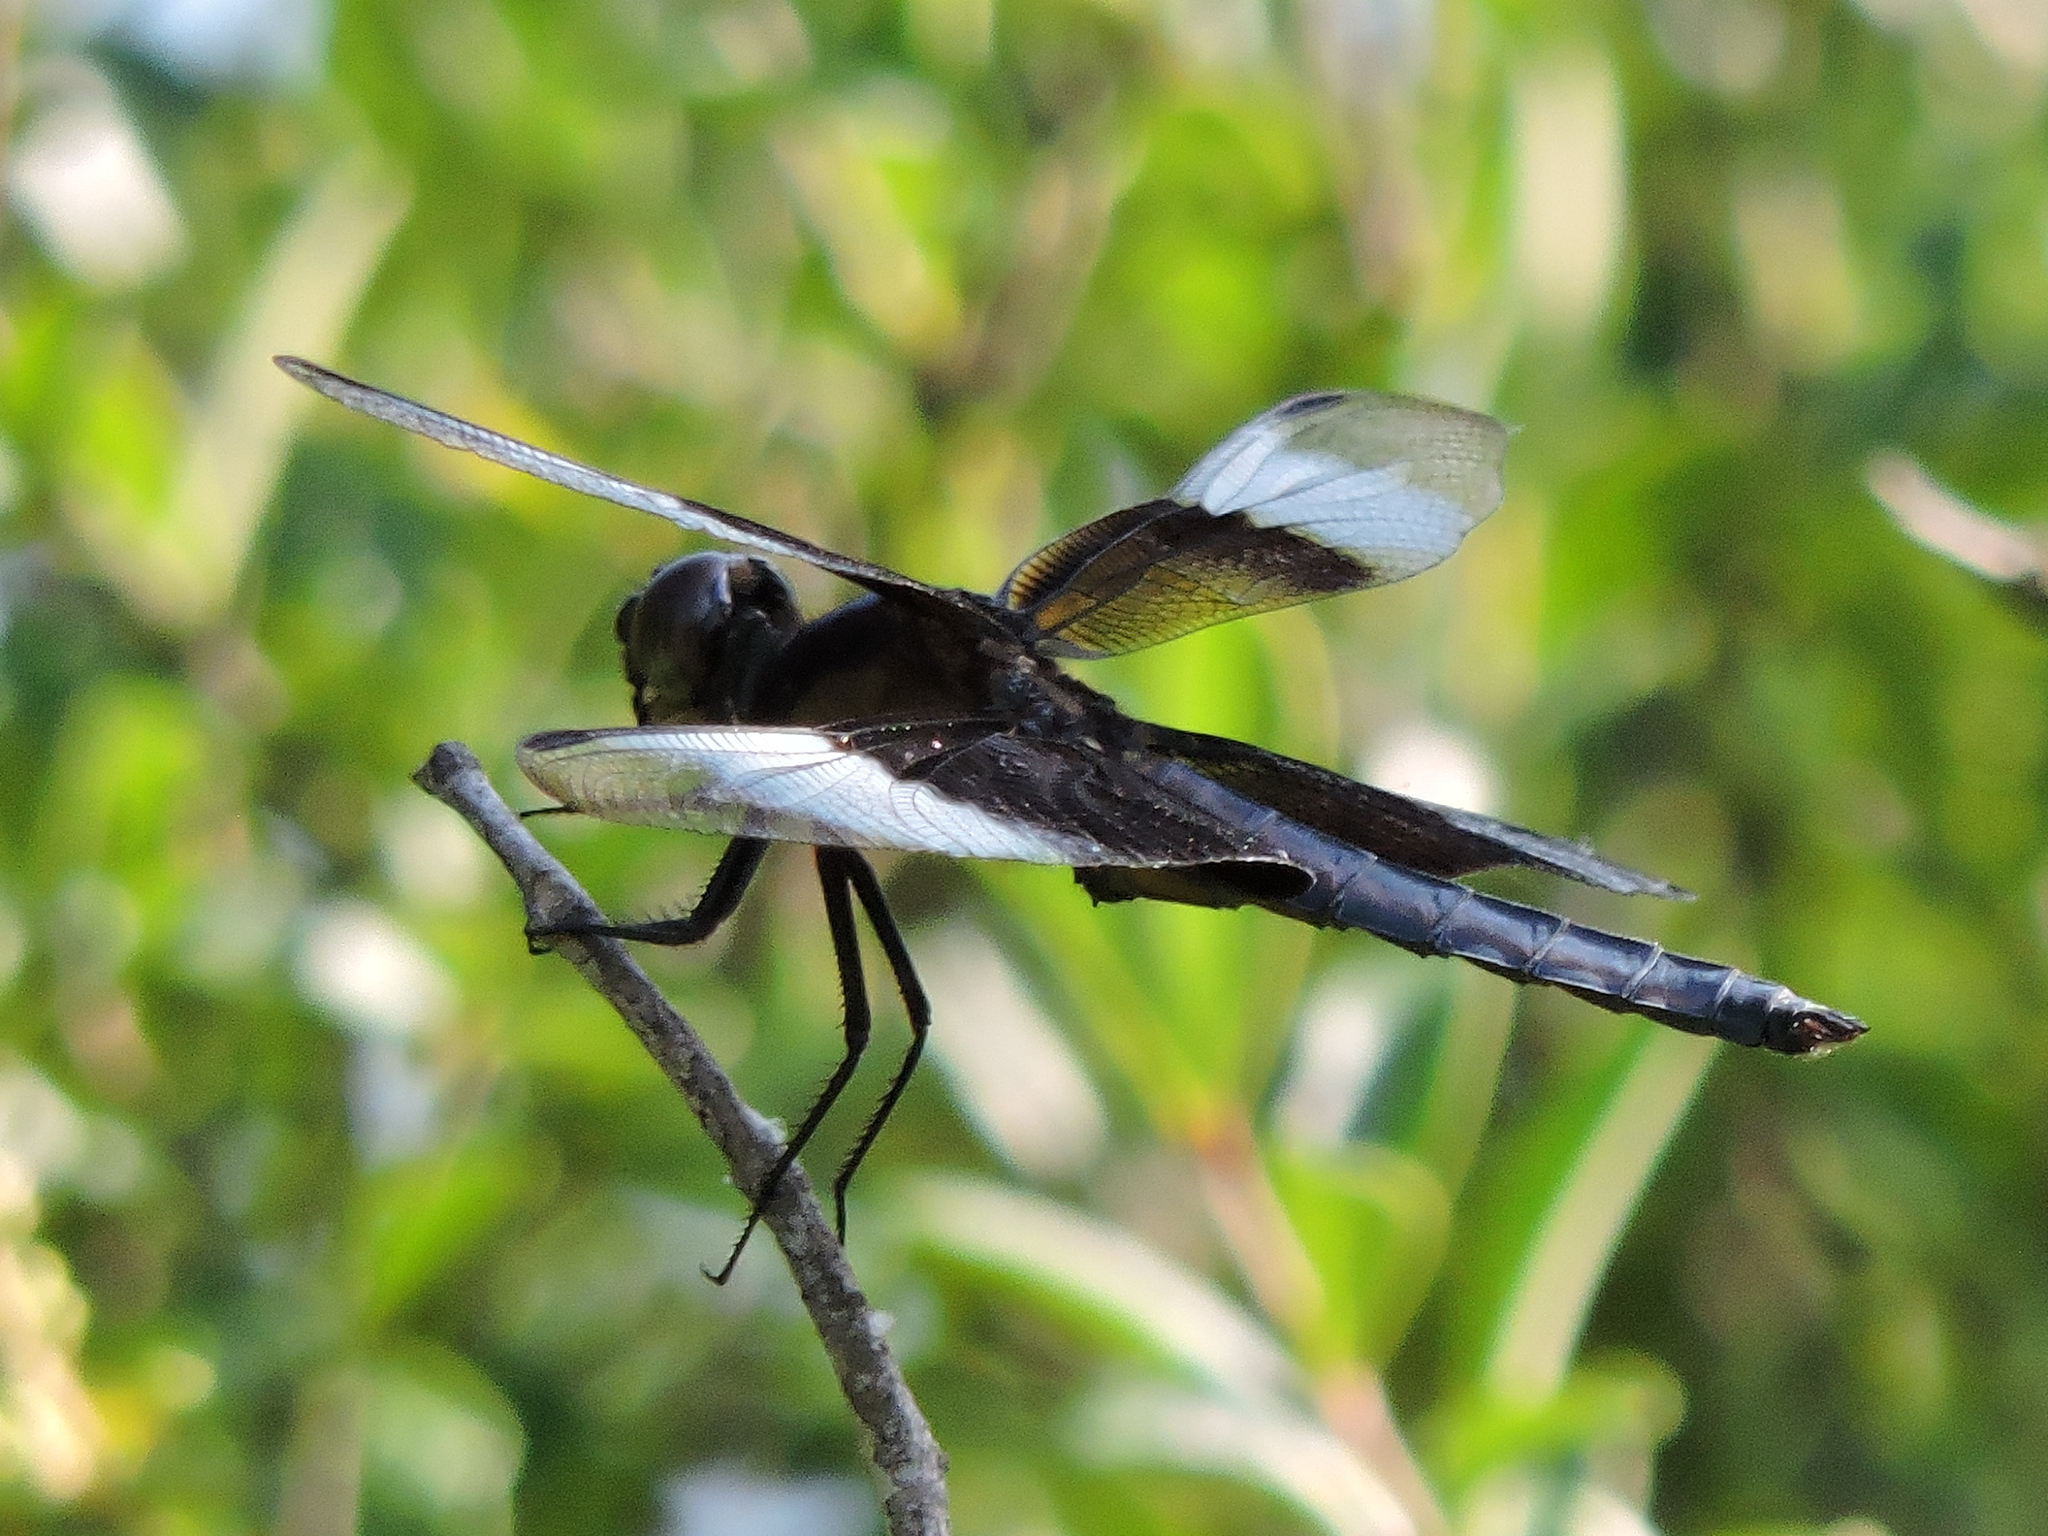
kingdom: Animalia
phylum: Arthropoda
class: Insecta
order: Odonata
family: Libellulidae
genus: Libellula
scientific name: Libellula luctuosa
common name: Widow skimmer
